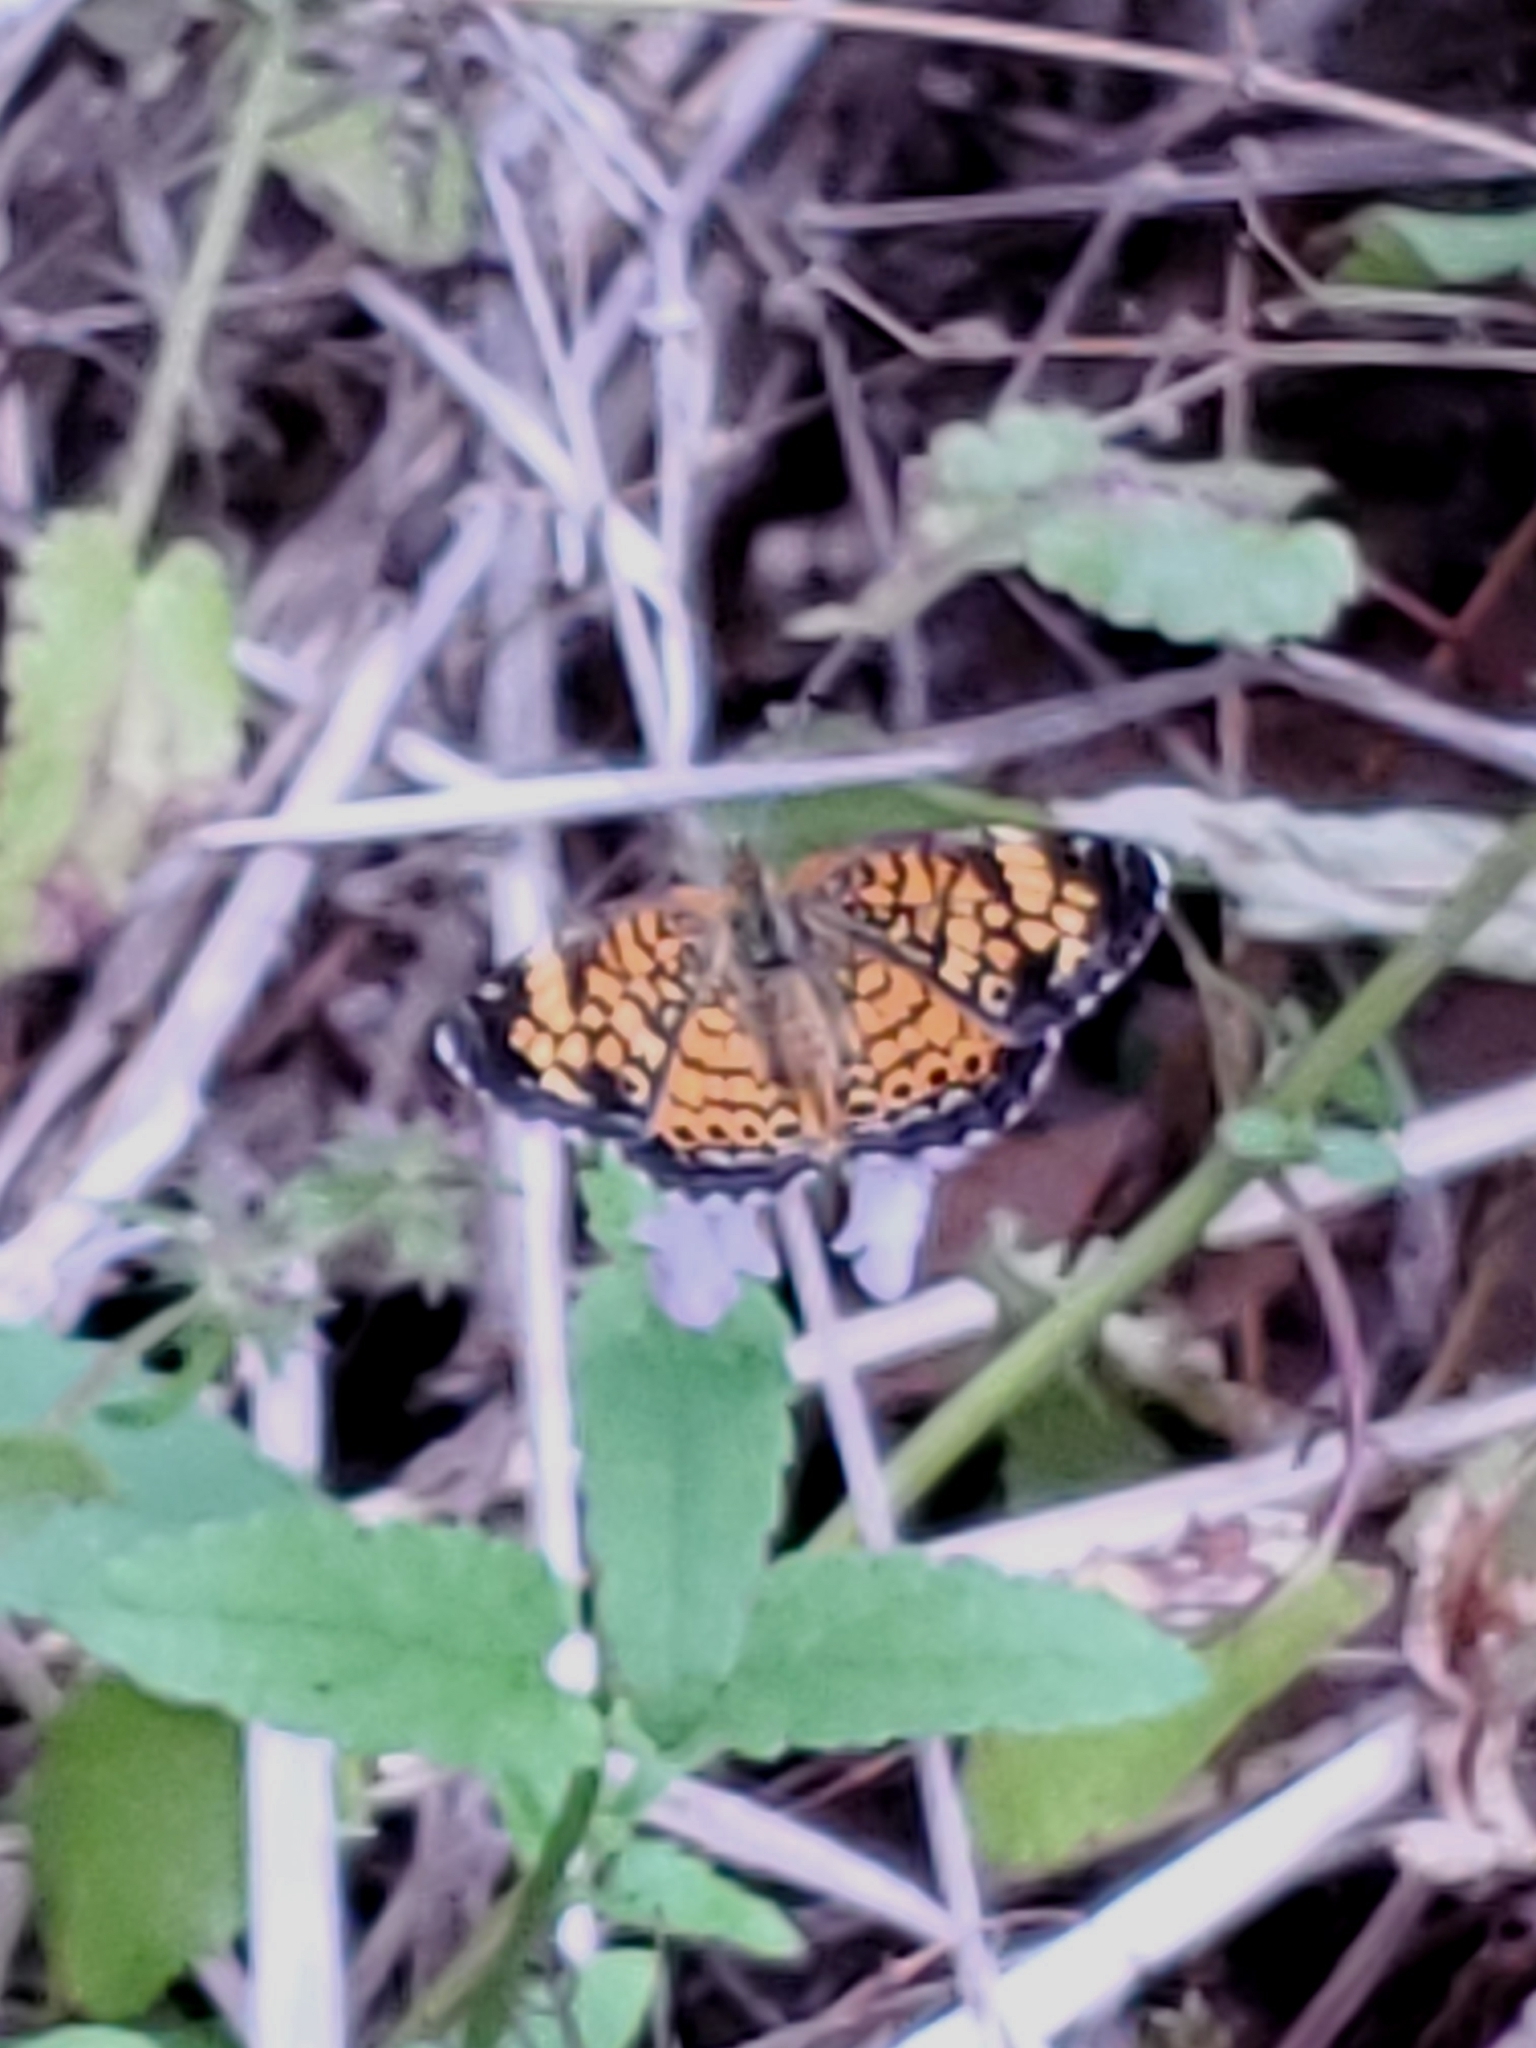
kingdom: Animalia
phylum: Arthropoda
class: Insecta
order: Lepidoptera
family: Nymphalidae
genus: Phyciodes
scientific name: Phyciodes tharos
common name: Pearl crescent
